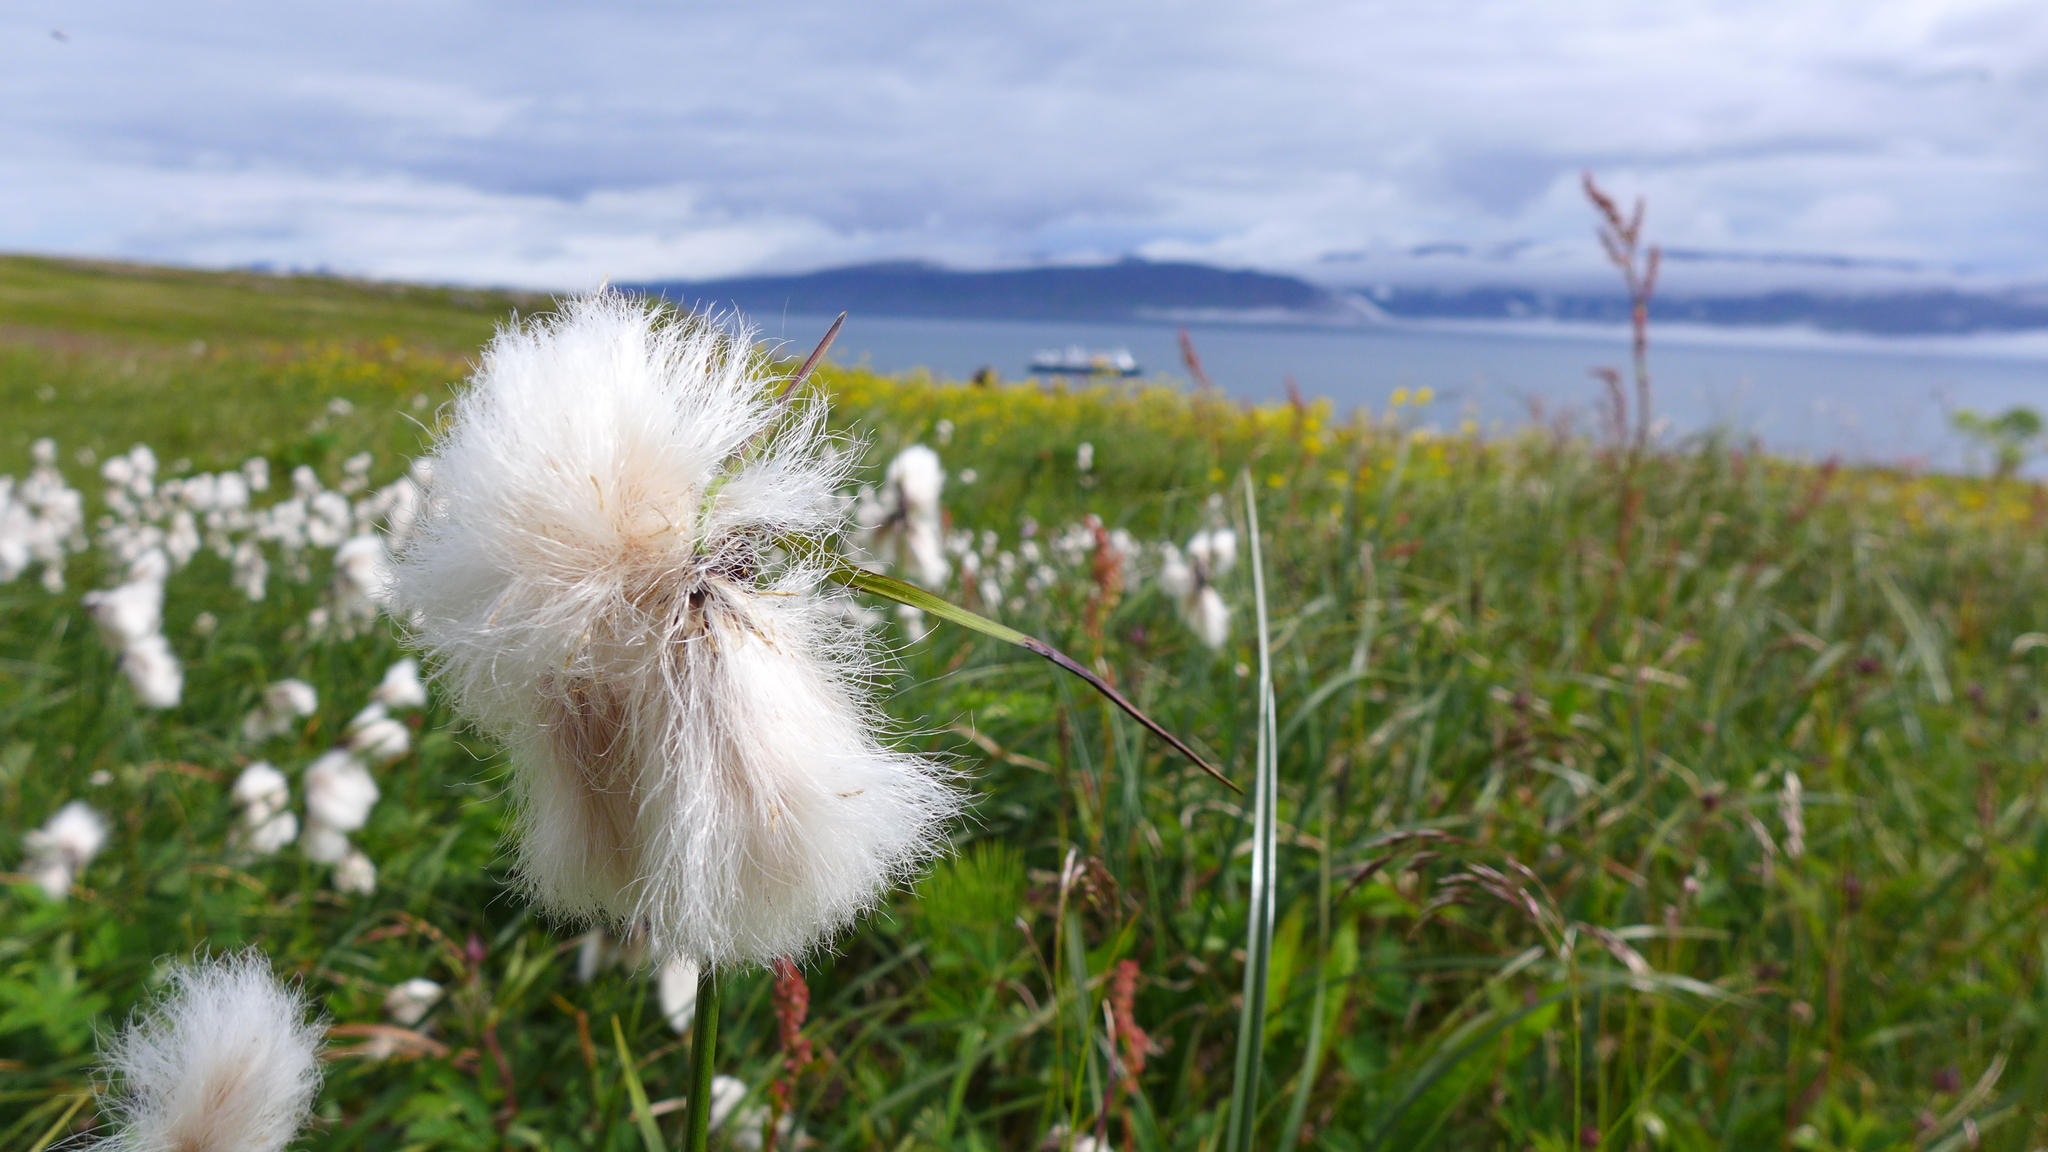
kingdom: Plantae
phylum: Tracheophyta
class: Liliopsida
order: Poales
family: Cyperaceae
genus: Eriophorum
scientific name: Eriophorum angustifolium
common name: Common cottongrass
